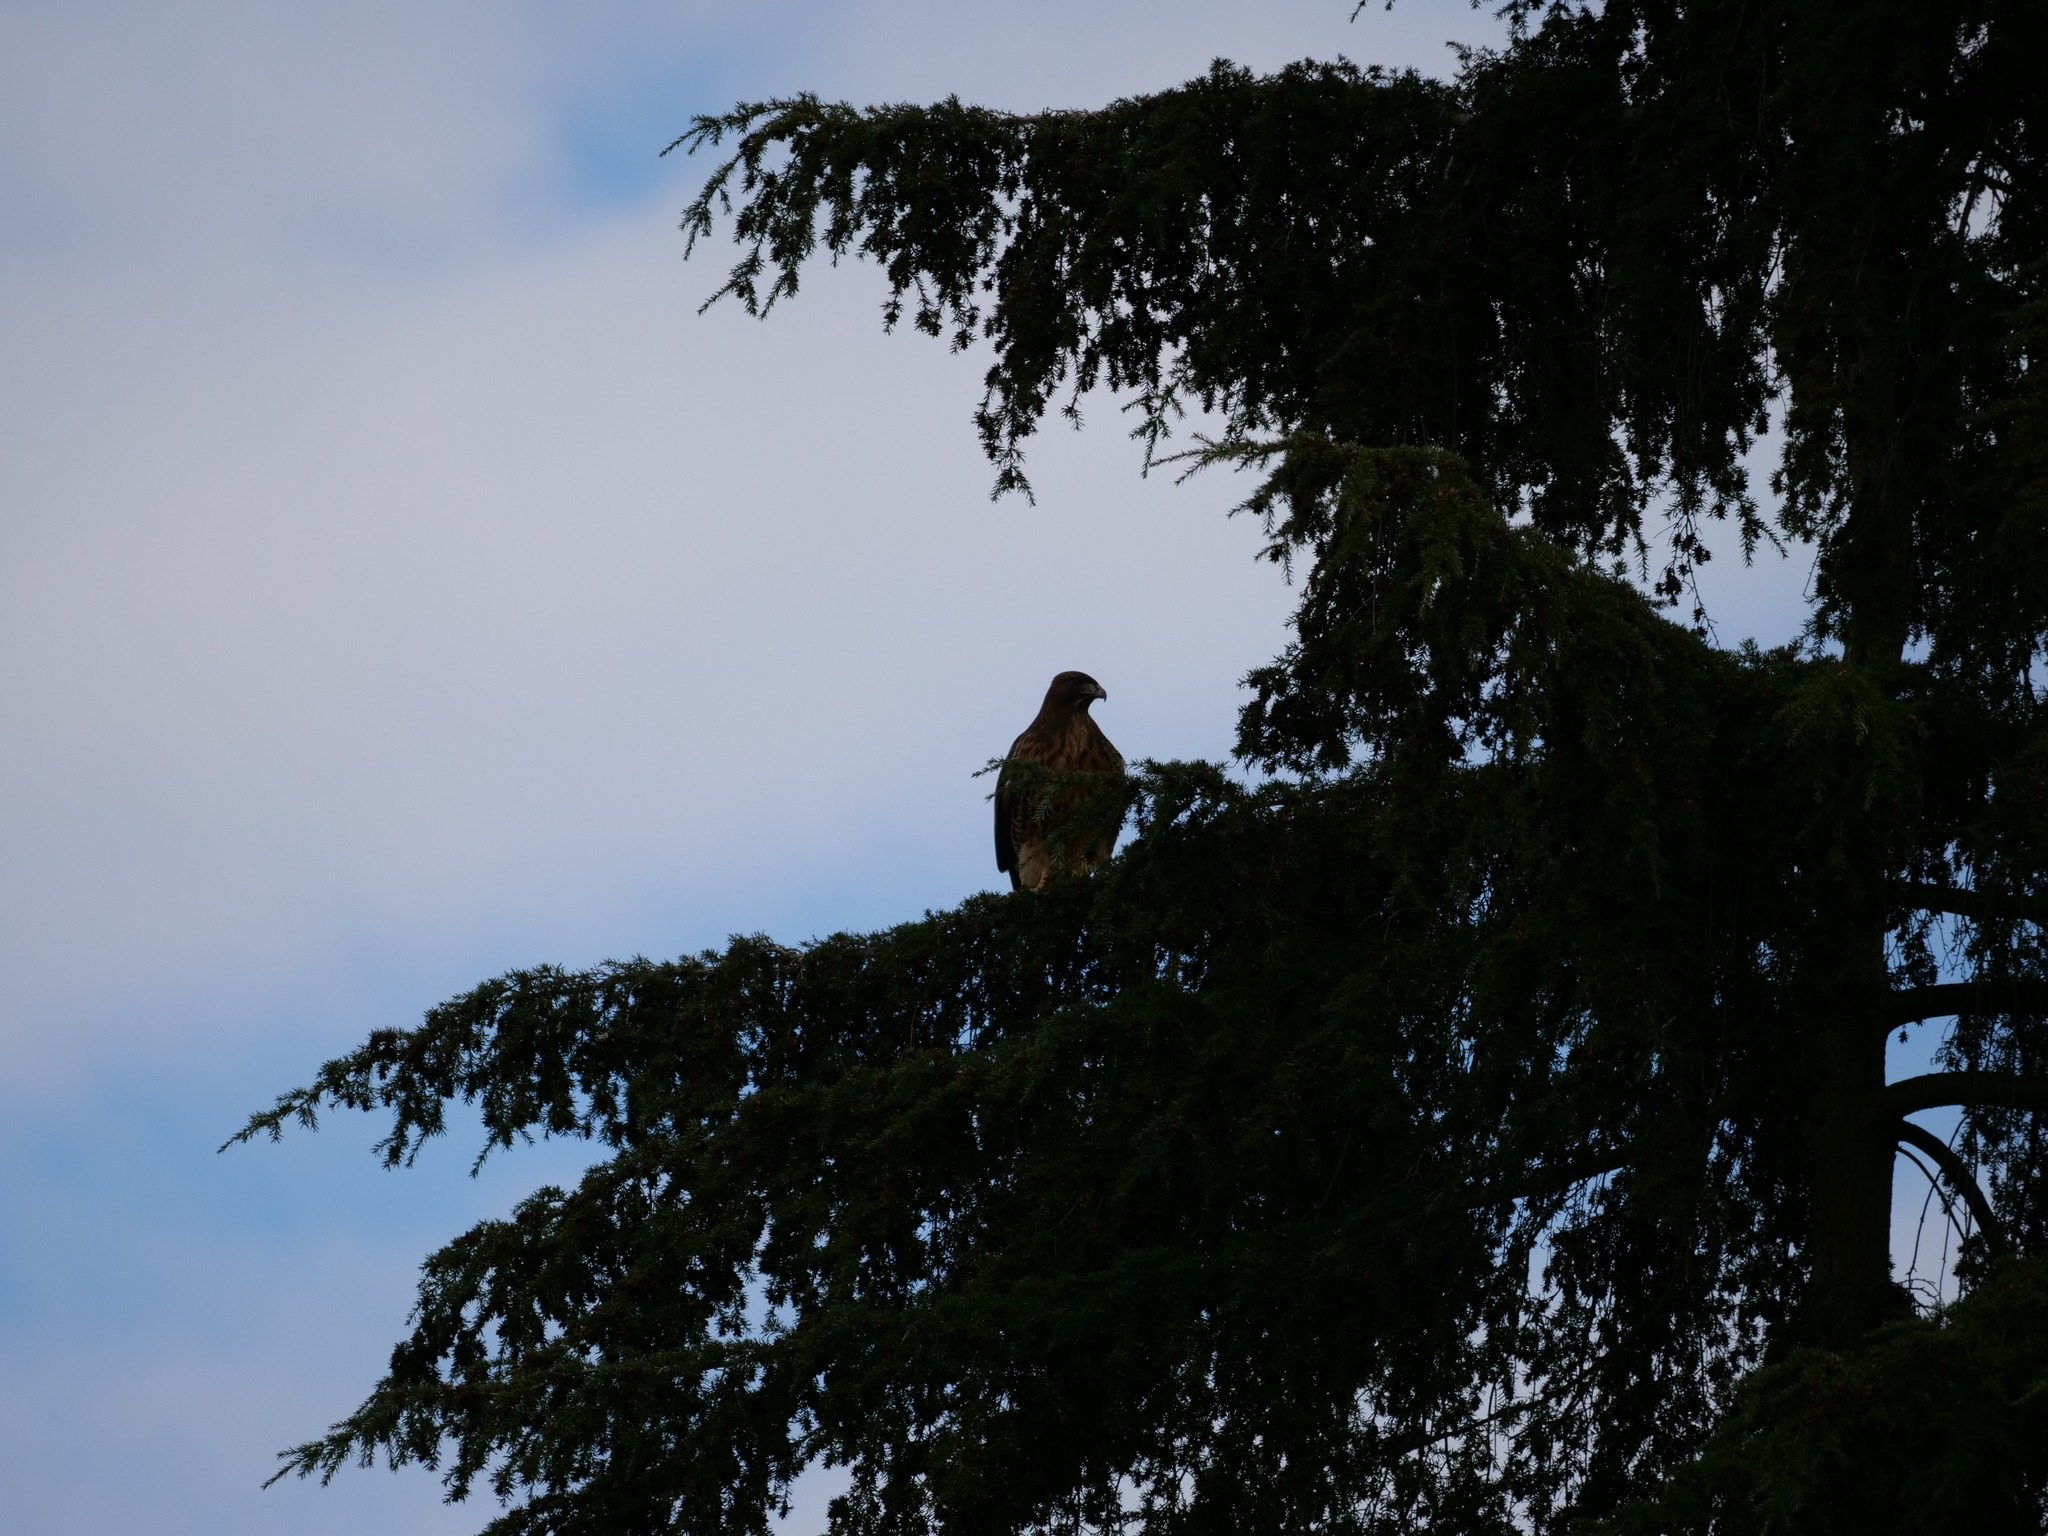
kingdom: Animalia
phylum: Chordata
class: Aves
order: Accipitriformes
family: Accipitridae
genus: Buteo
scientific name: Buteo jamaicensis
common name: Red-tailed hawk
